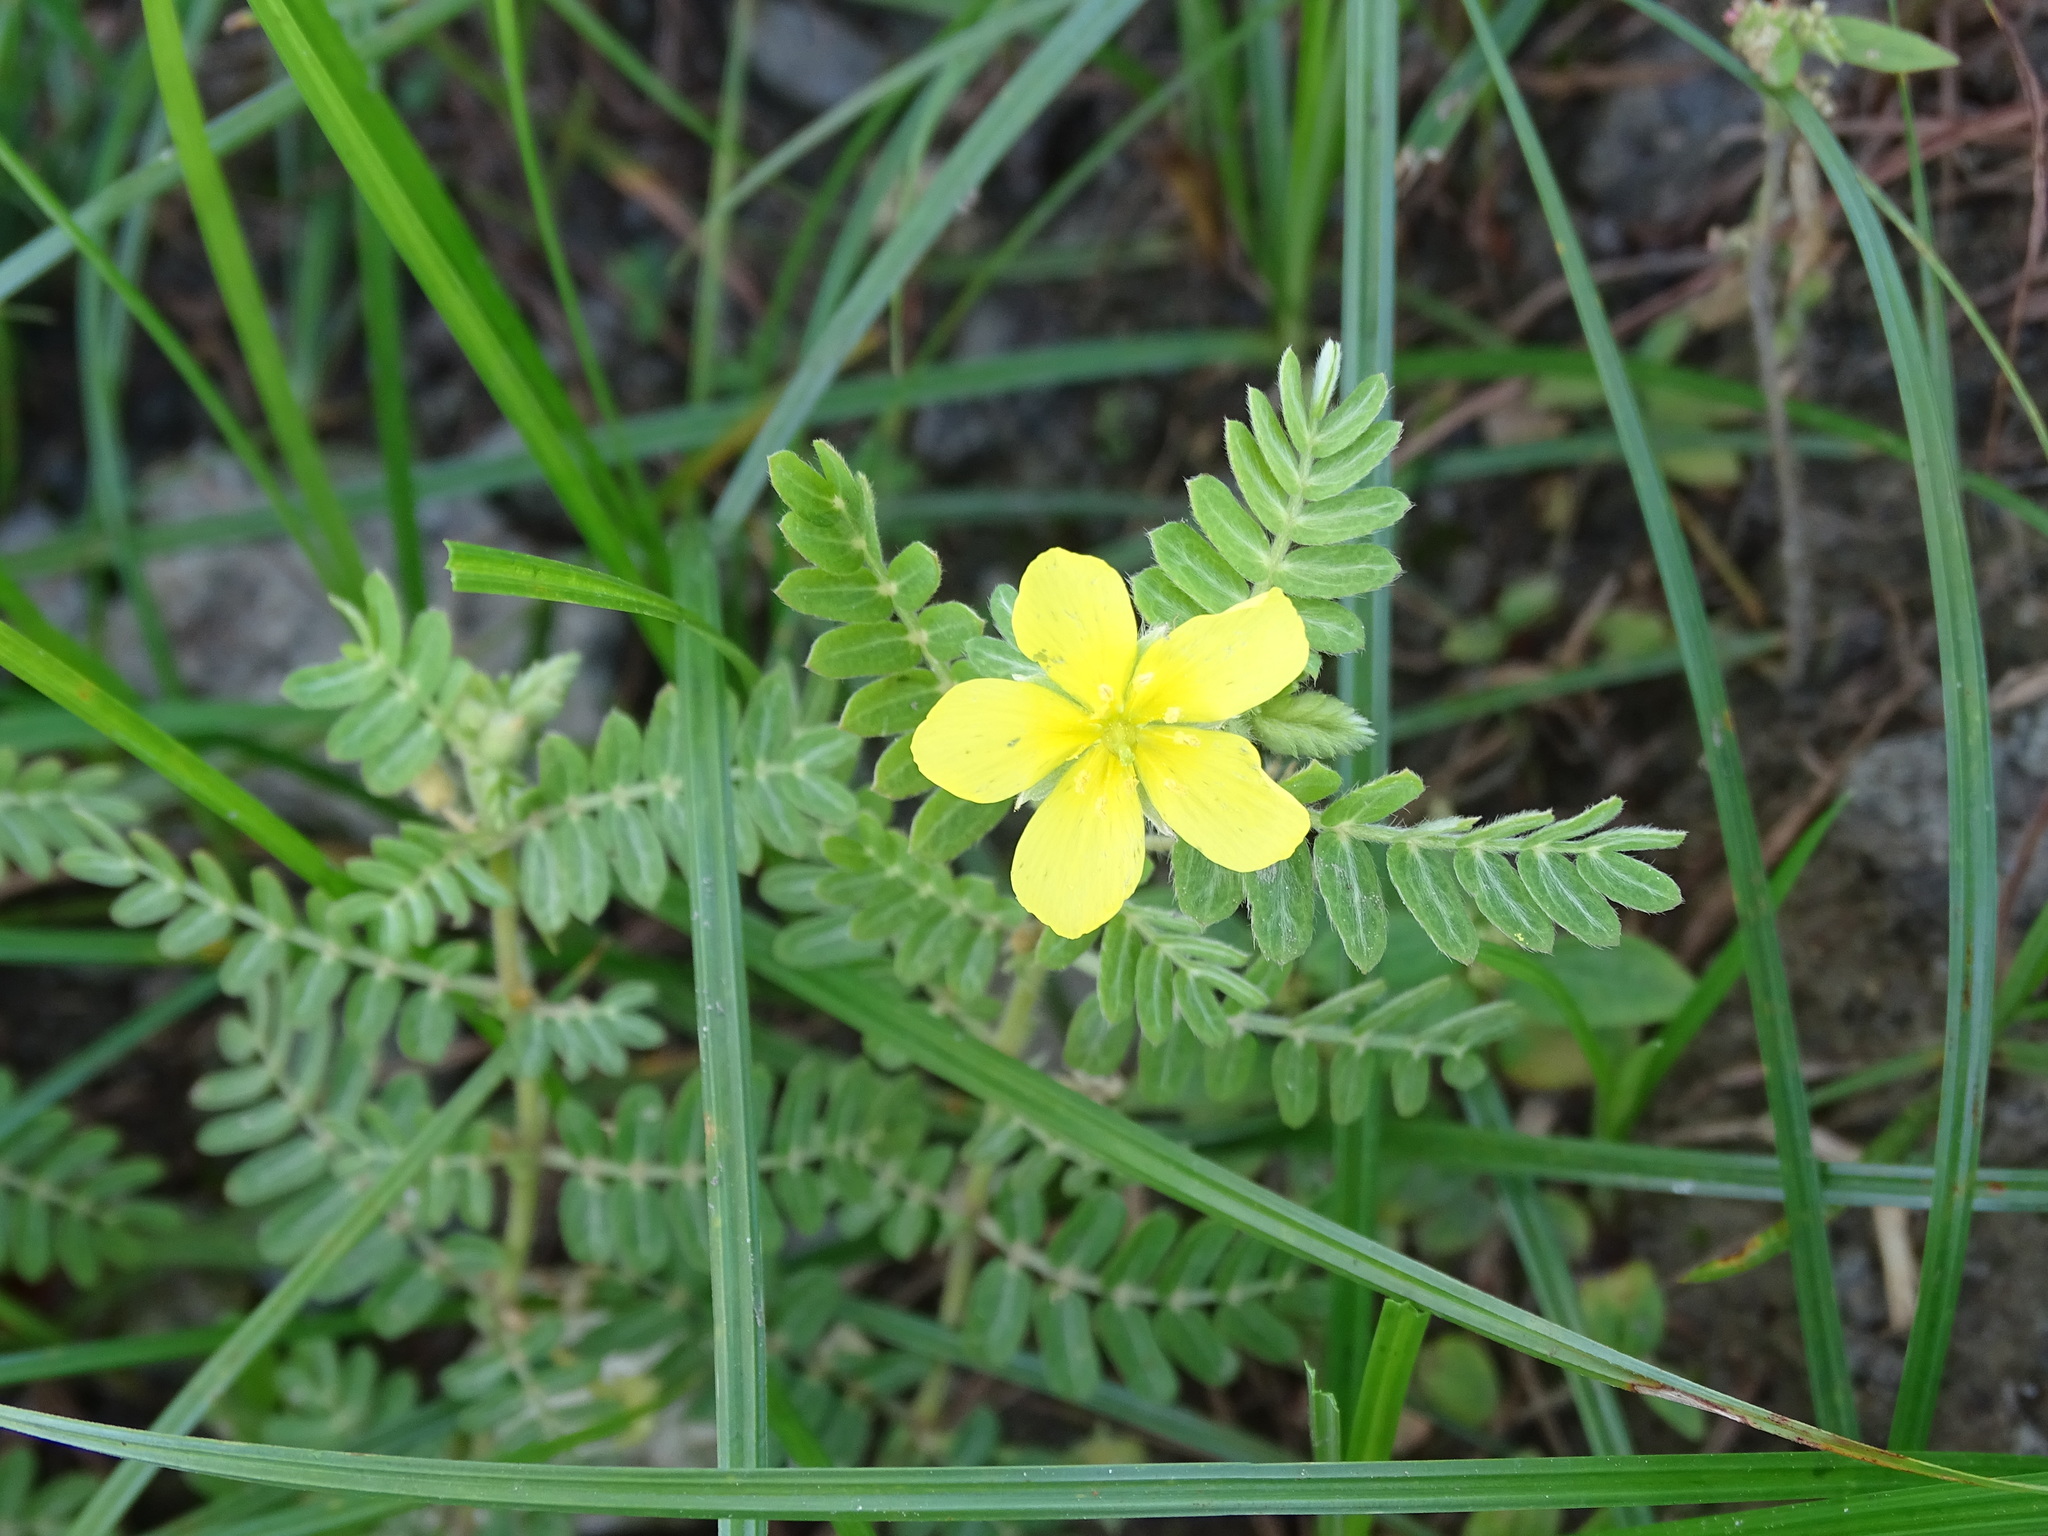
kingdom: Plantae
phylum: Tracheophyta
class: Magnoliopsida
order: Zygophyllales
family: Zygophyllaceae
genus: Tribulus
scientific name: Tribulus cistoides
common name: Jamaican feverplant
